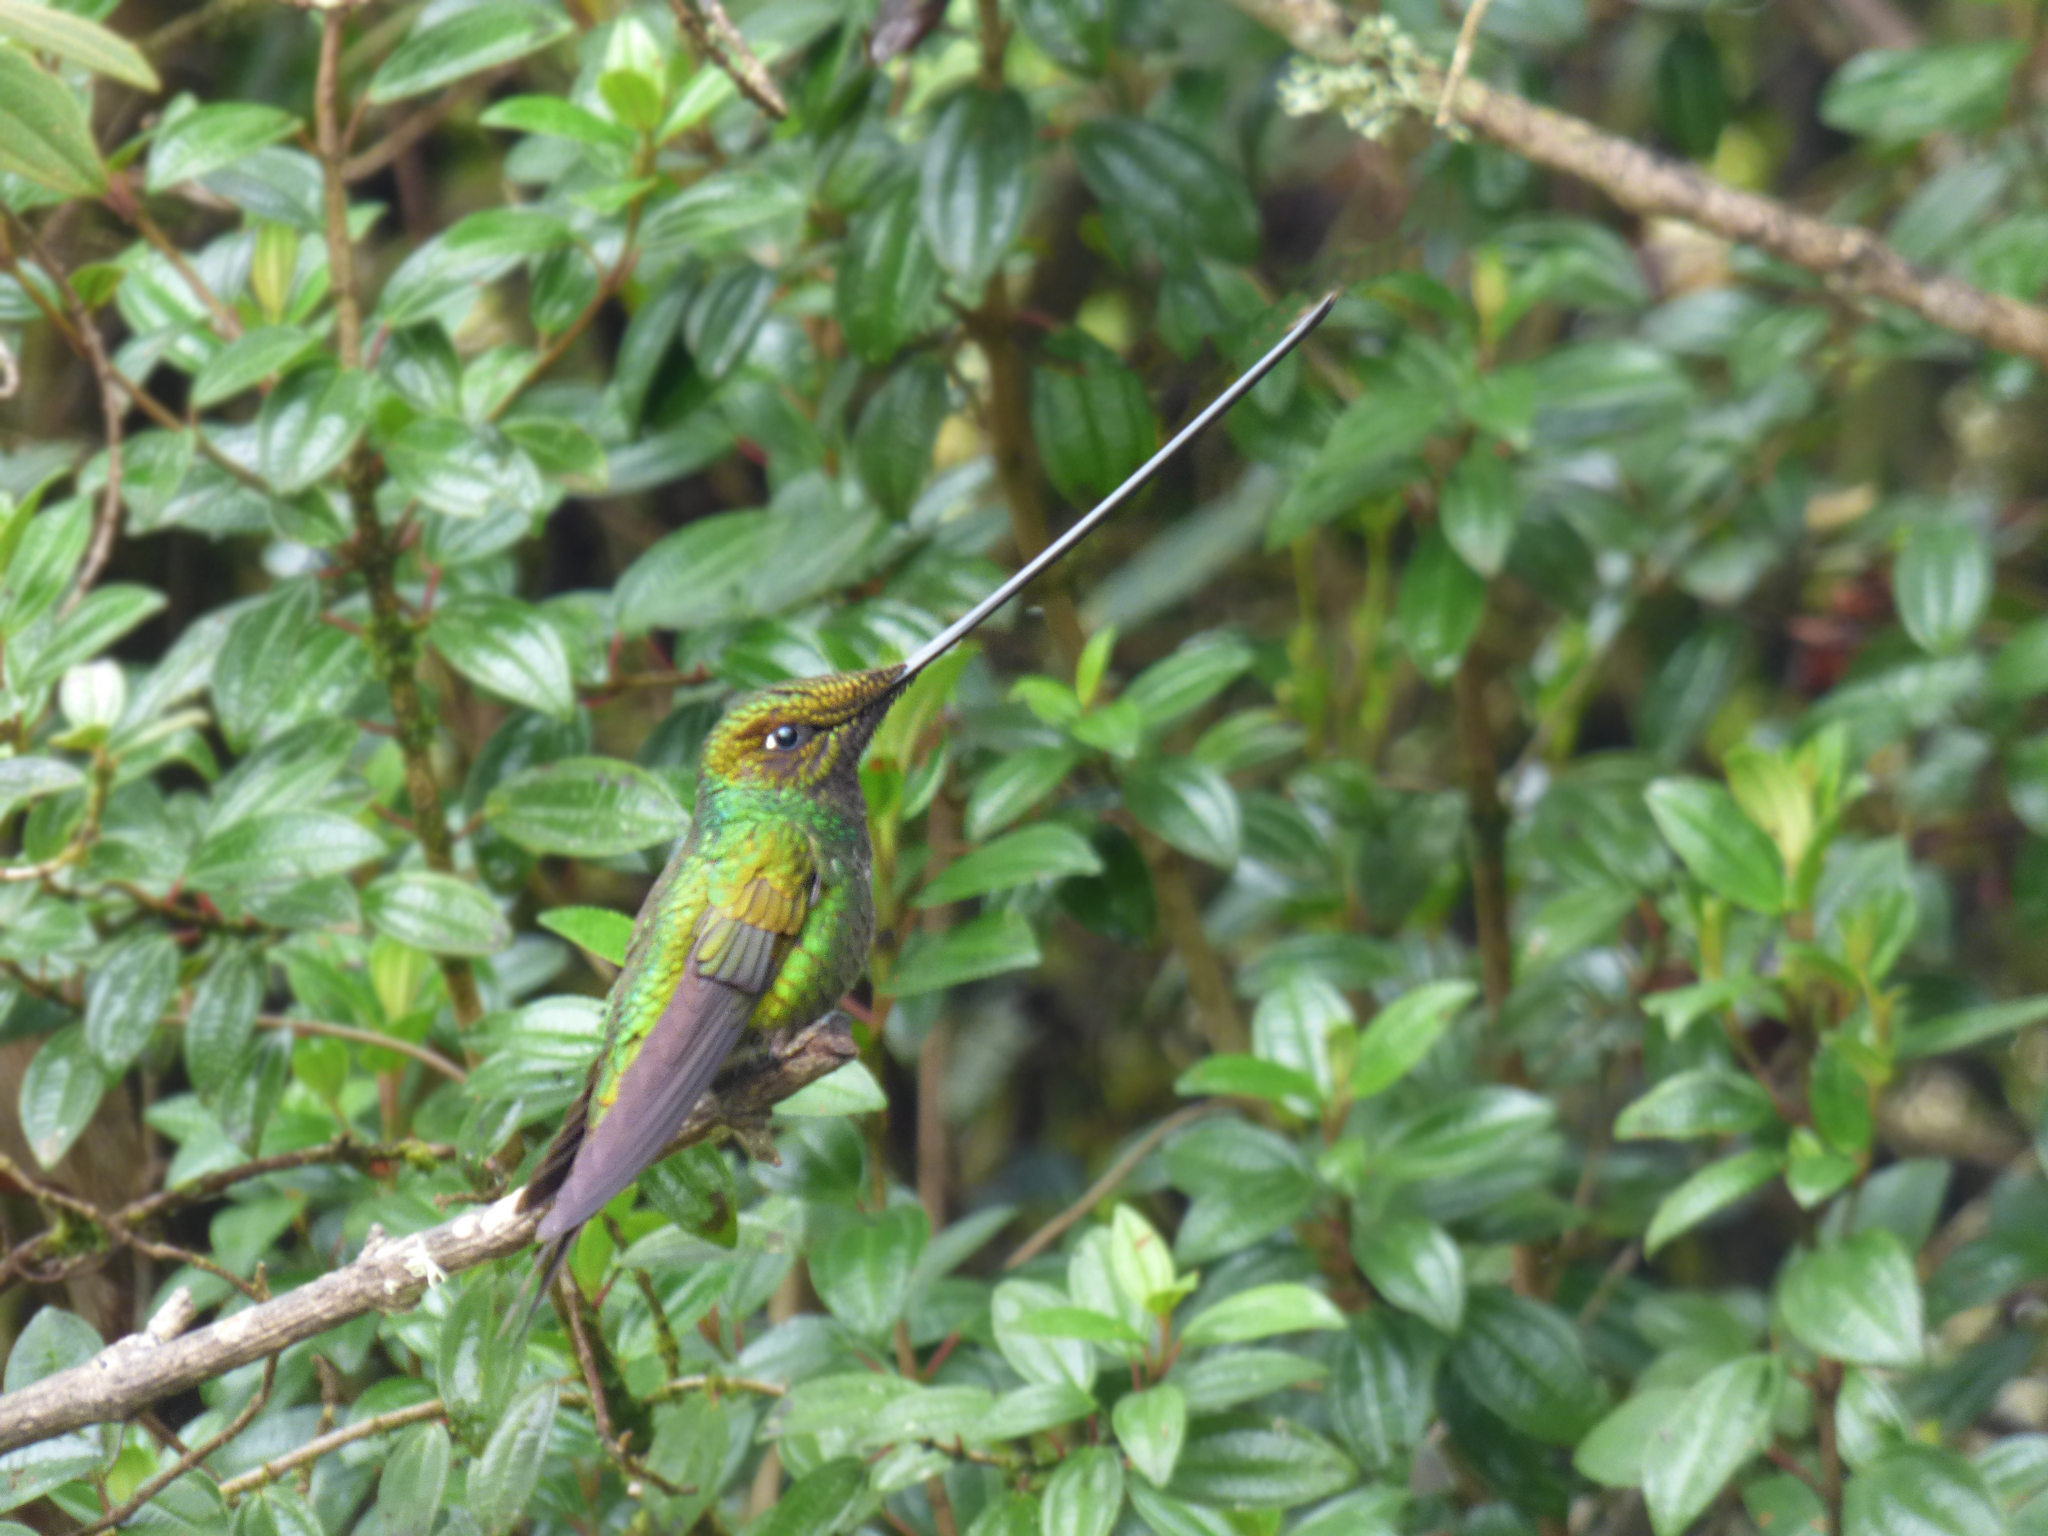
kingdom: Animalia
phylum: Chordata
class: Aves
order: Apodiformes
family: Trochilidae
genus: Ensifera
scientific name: Ensifera ensifera
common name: Sword-billed hummingbird
